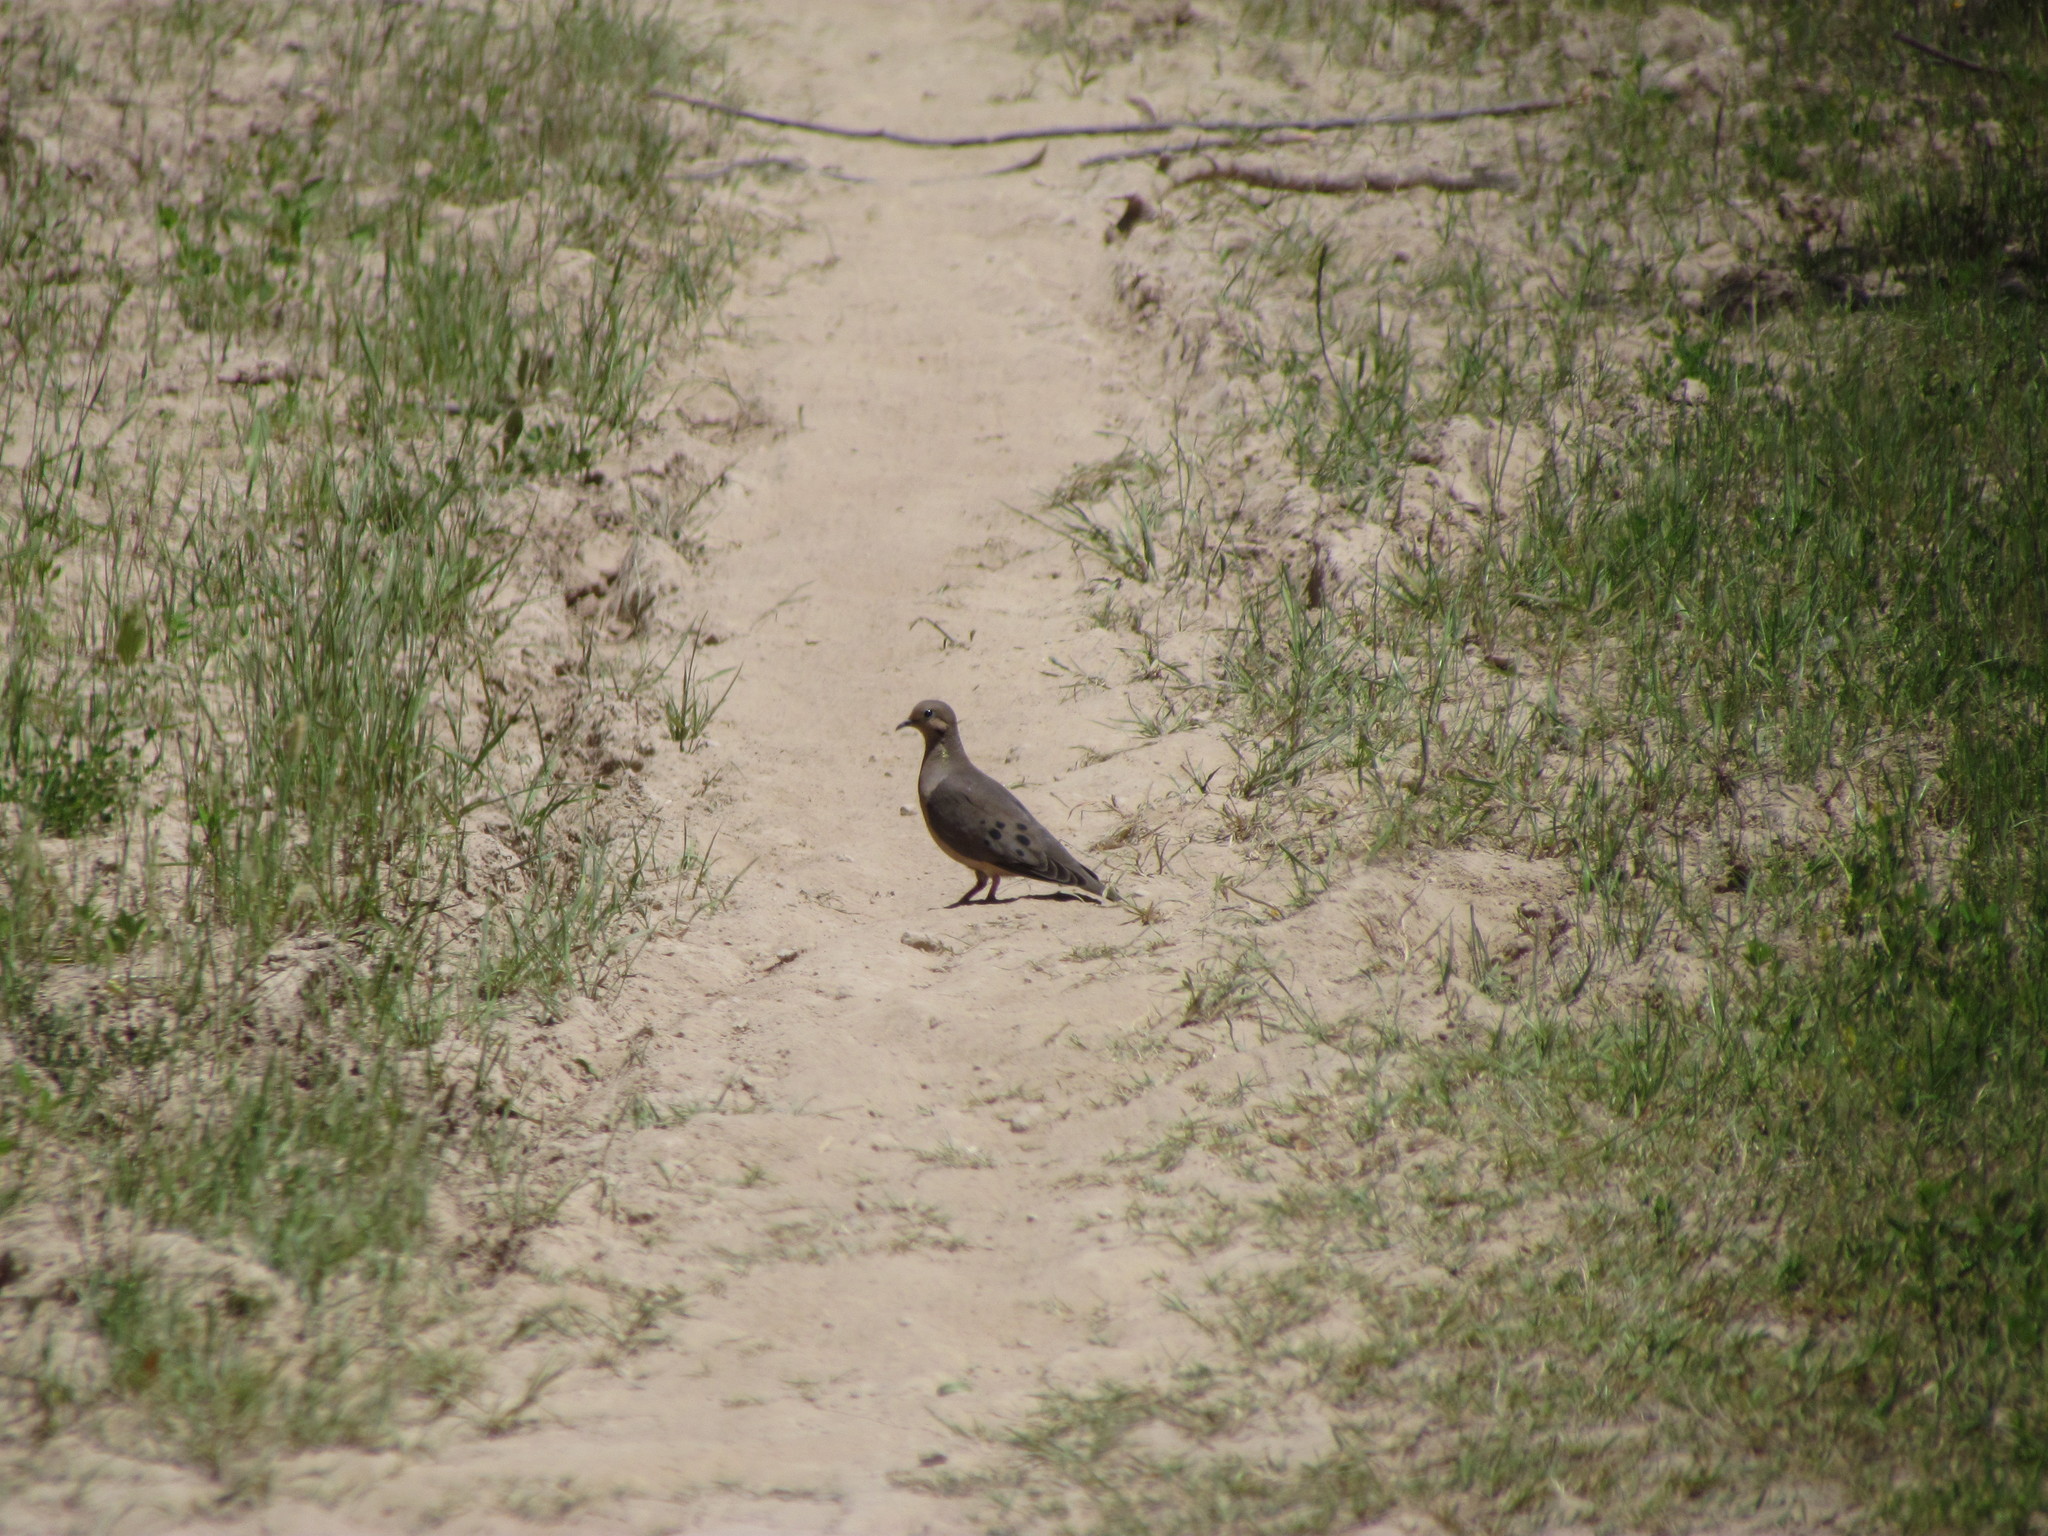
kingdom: Animalia
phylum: Chordata
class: Aves
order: Columbiformes
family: Columbidae
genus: Zenaida
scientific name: Zenaida auriculata
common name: Eared dove
